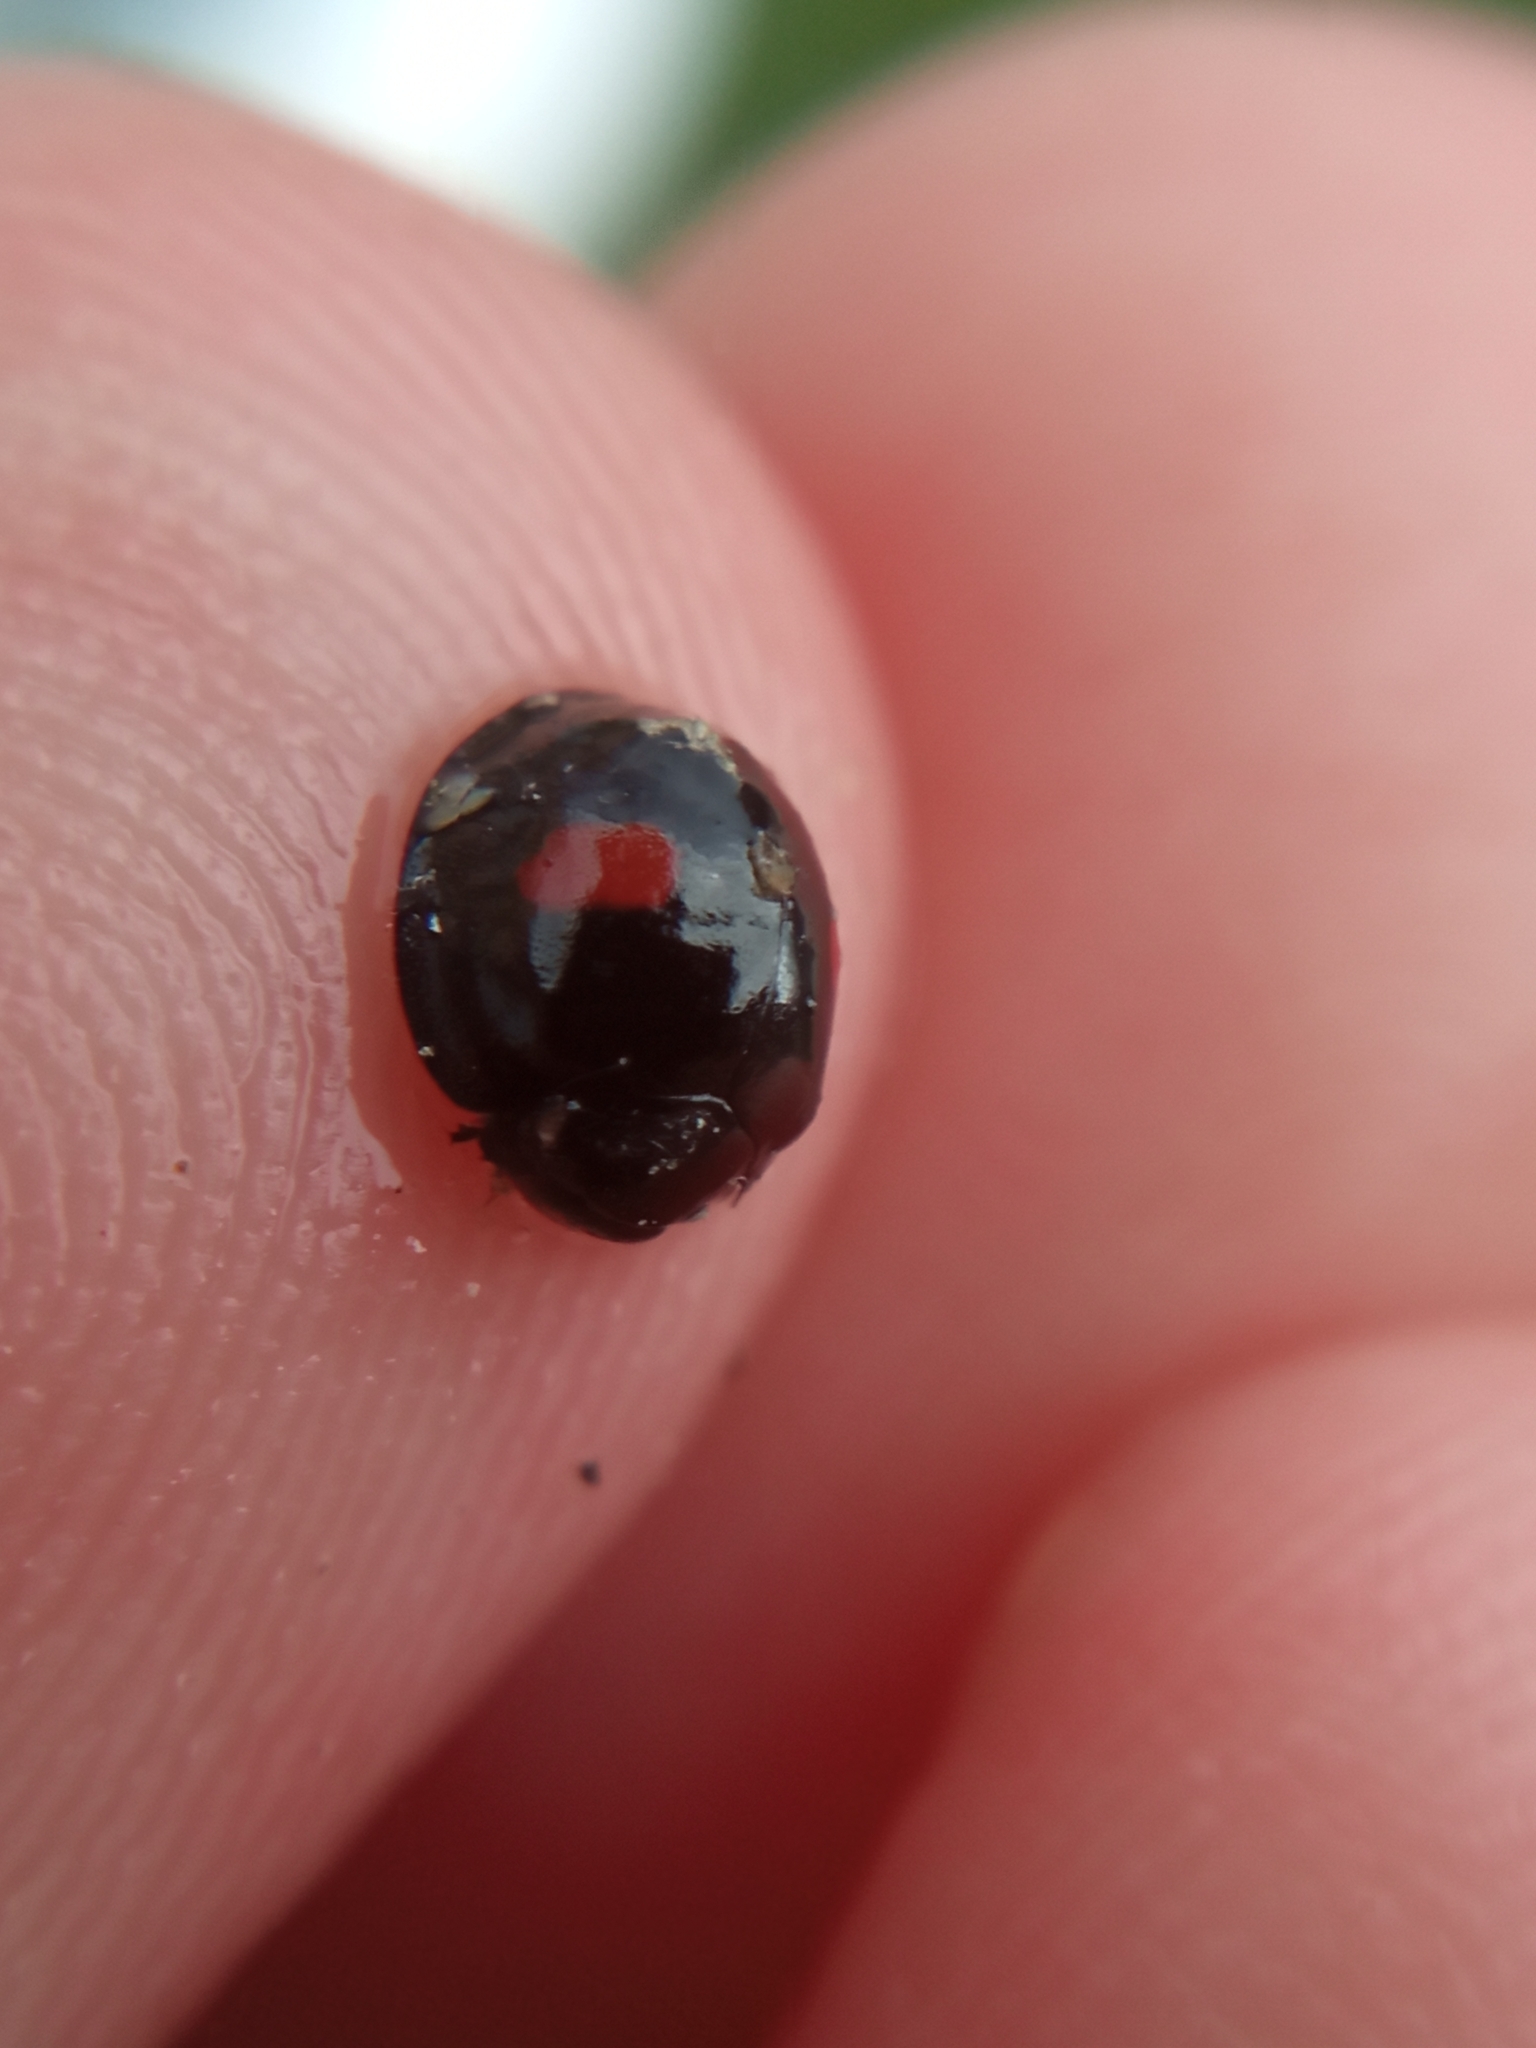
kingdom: Animalia
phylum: Arthropoda
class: Insecta
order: Coleoptera
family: Coccinellidae
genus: Chilocorus
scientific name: Chilocorus renipustulatus
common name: Kidney-spot ladybird
